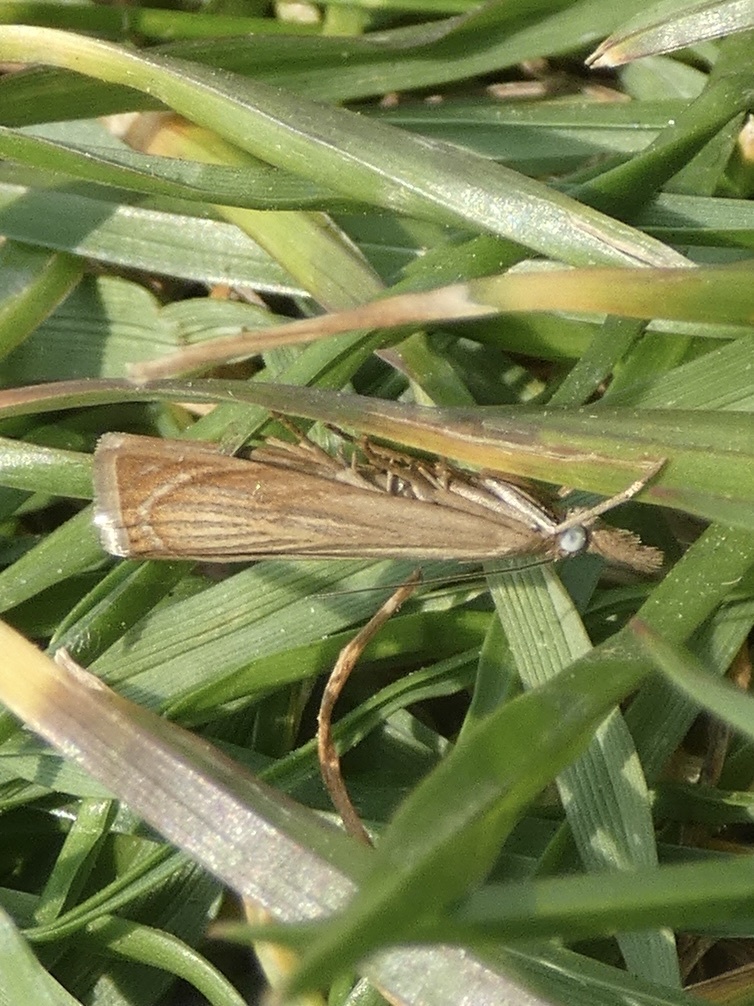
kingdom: Animalia
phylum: Arthropoda
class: Insecta
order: Lepidoptera
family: Crambidae
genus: Chrysoteuchia
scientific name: Chrysoteuchia culmella
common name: Garden grass-veneer
